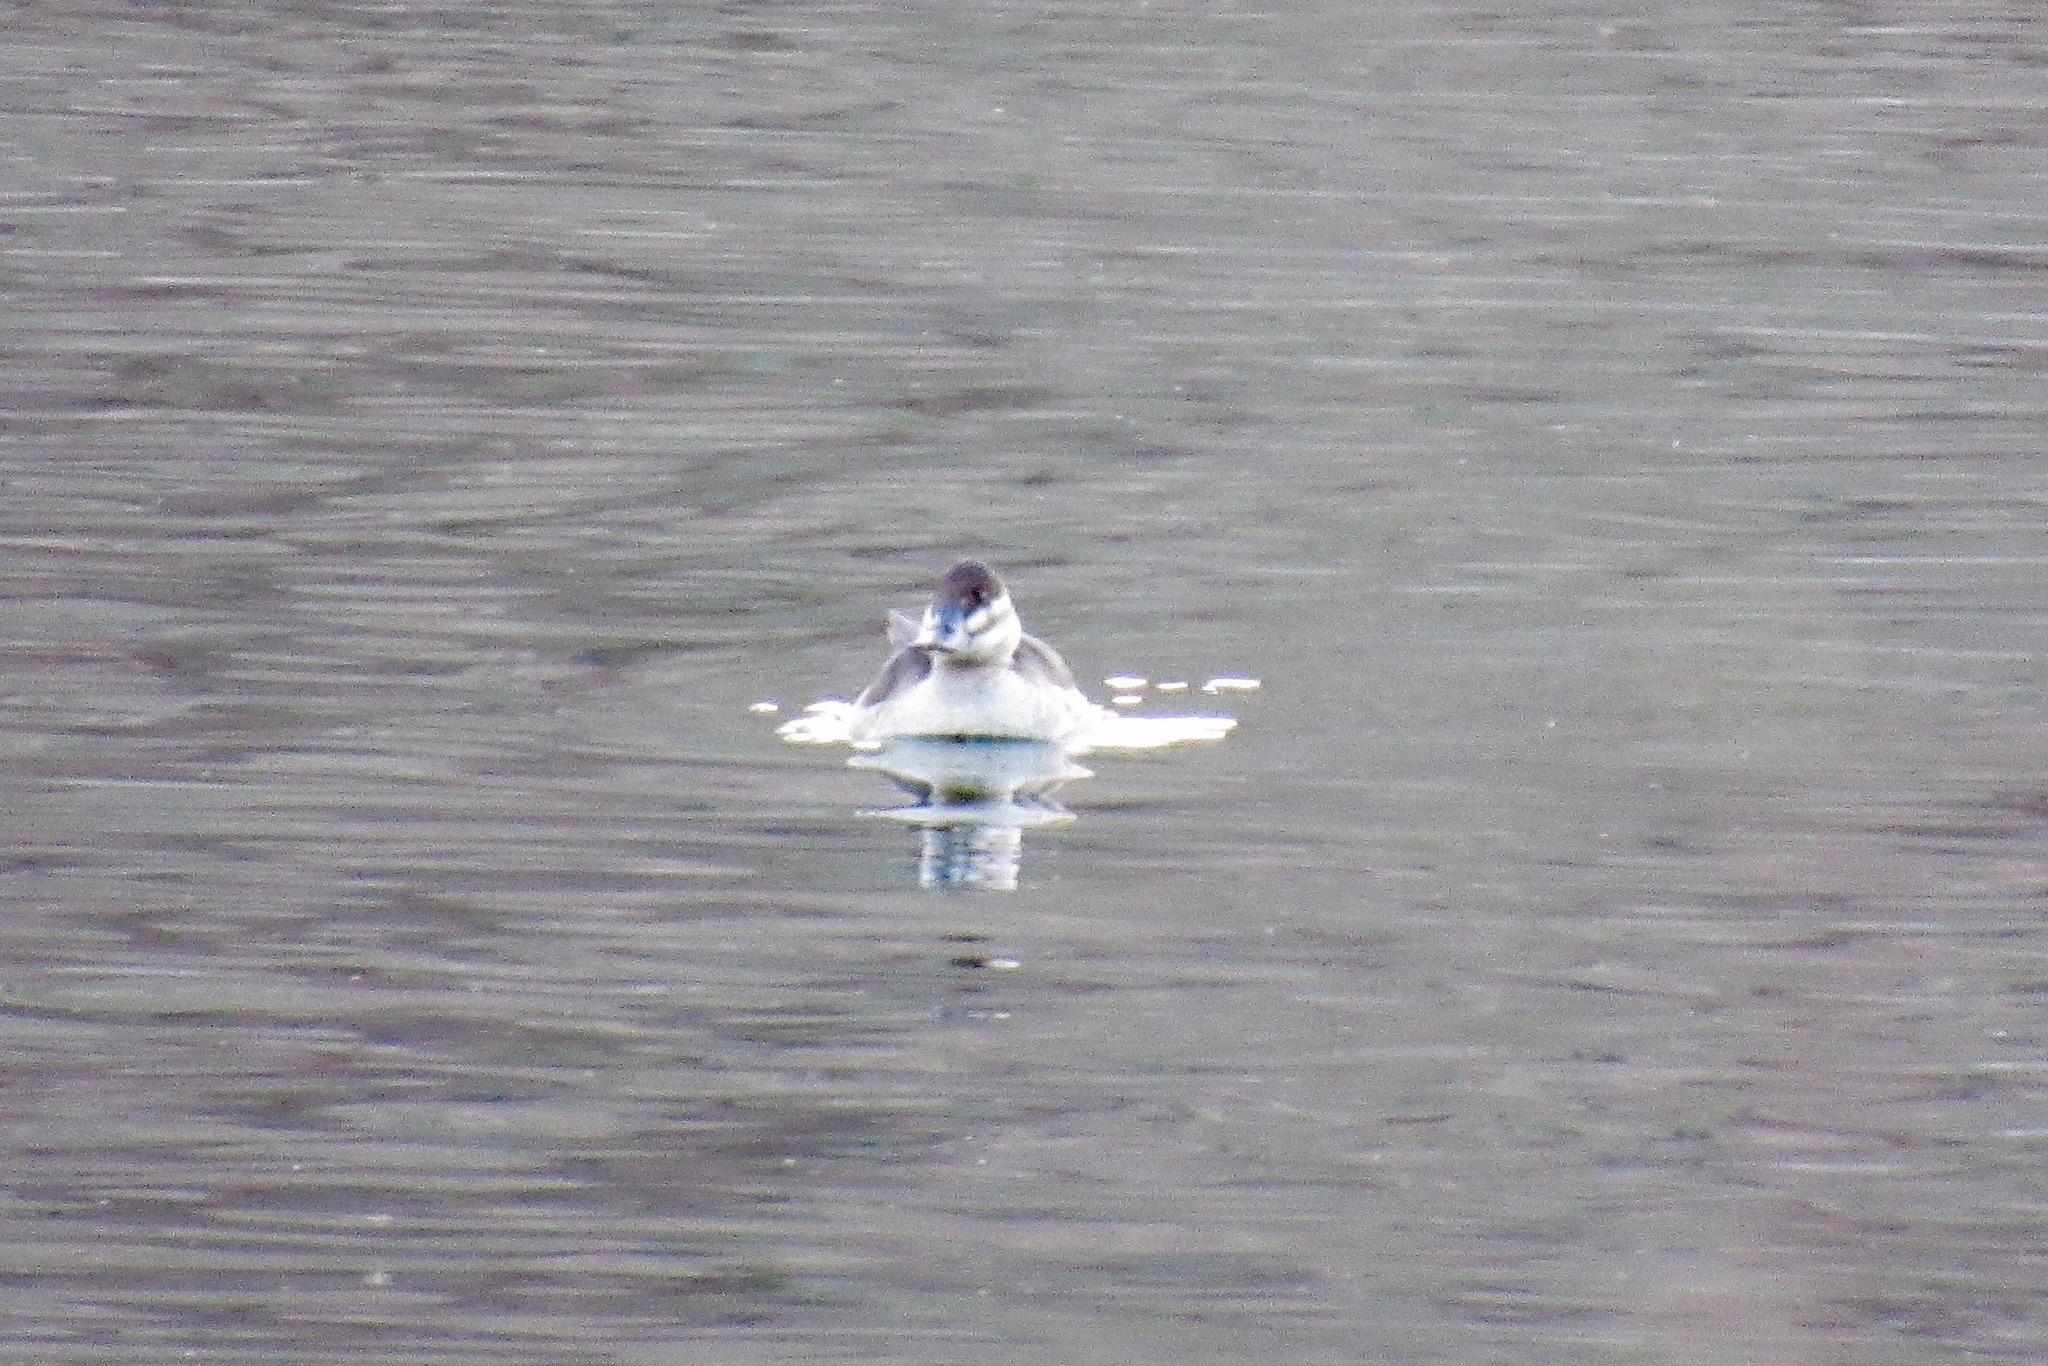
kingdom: Animalia
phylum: Chordata
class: Aves
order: Anseriformes
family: Anatidae
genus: Oxyura
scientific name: Oxyura jamaicensis
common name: Ruddy duck
